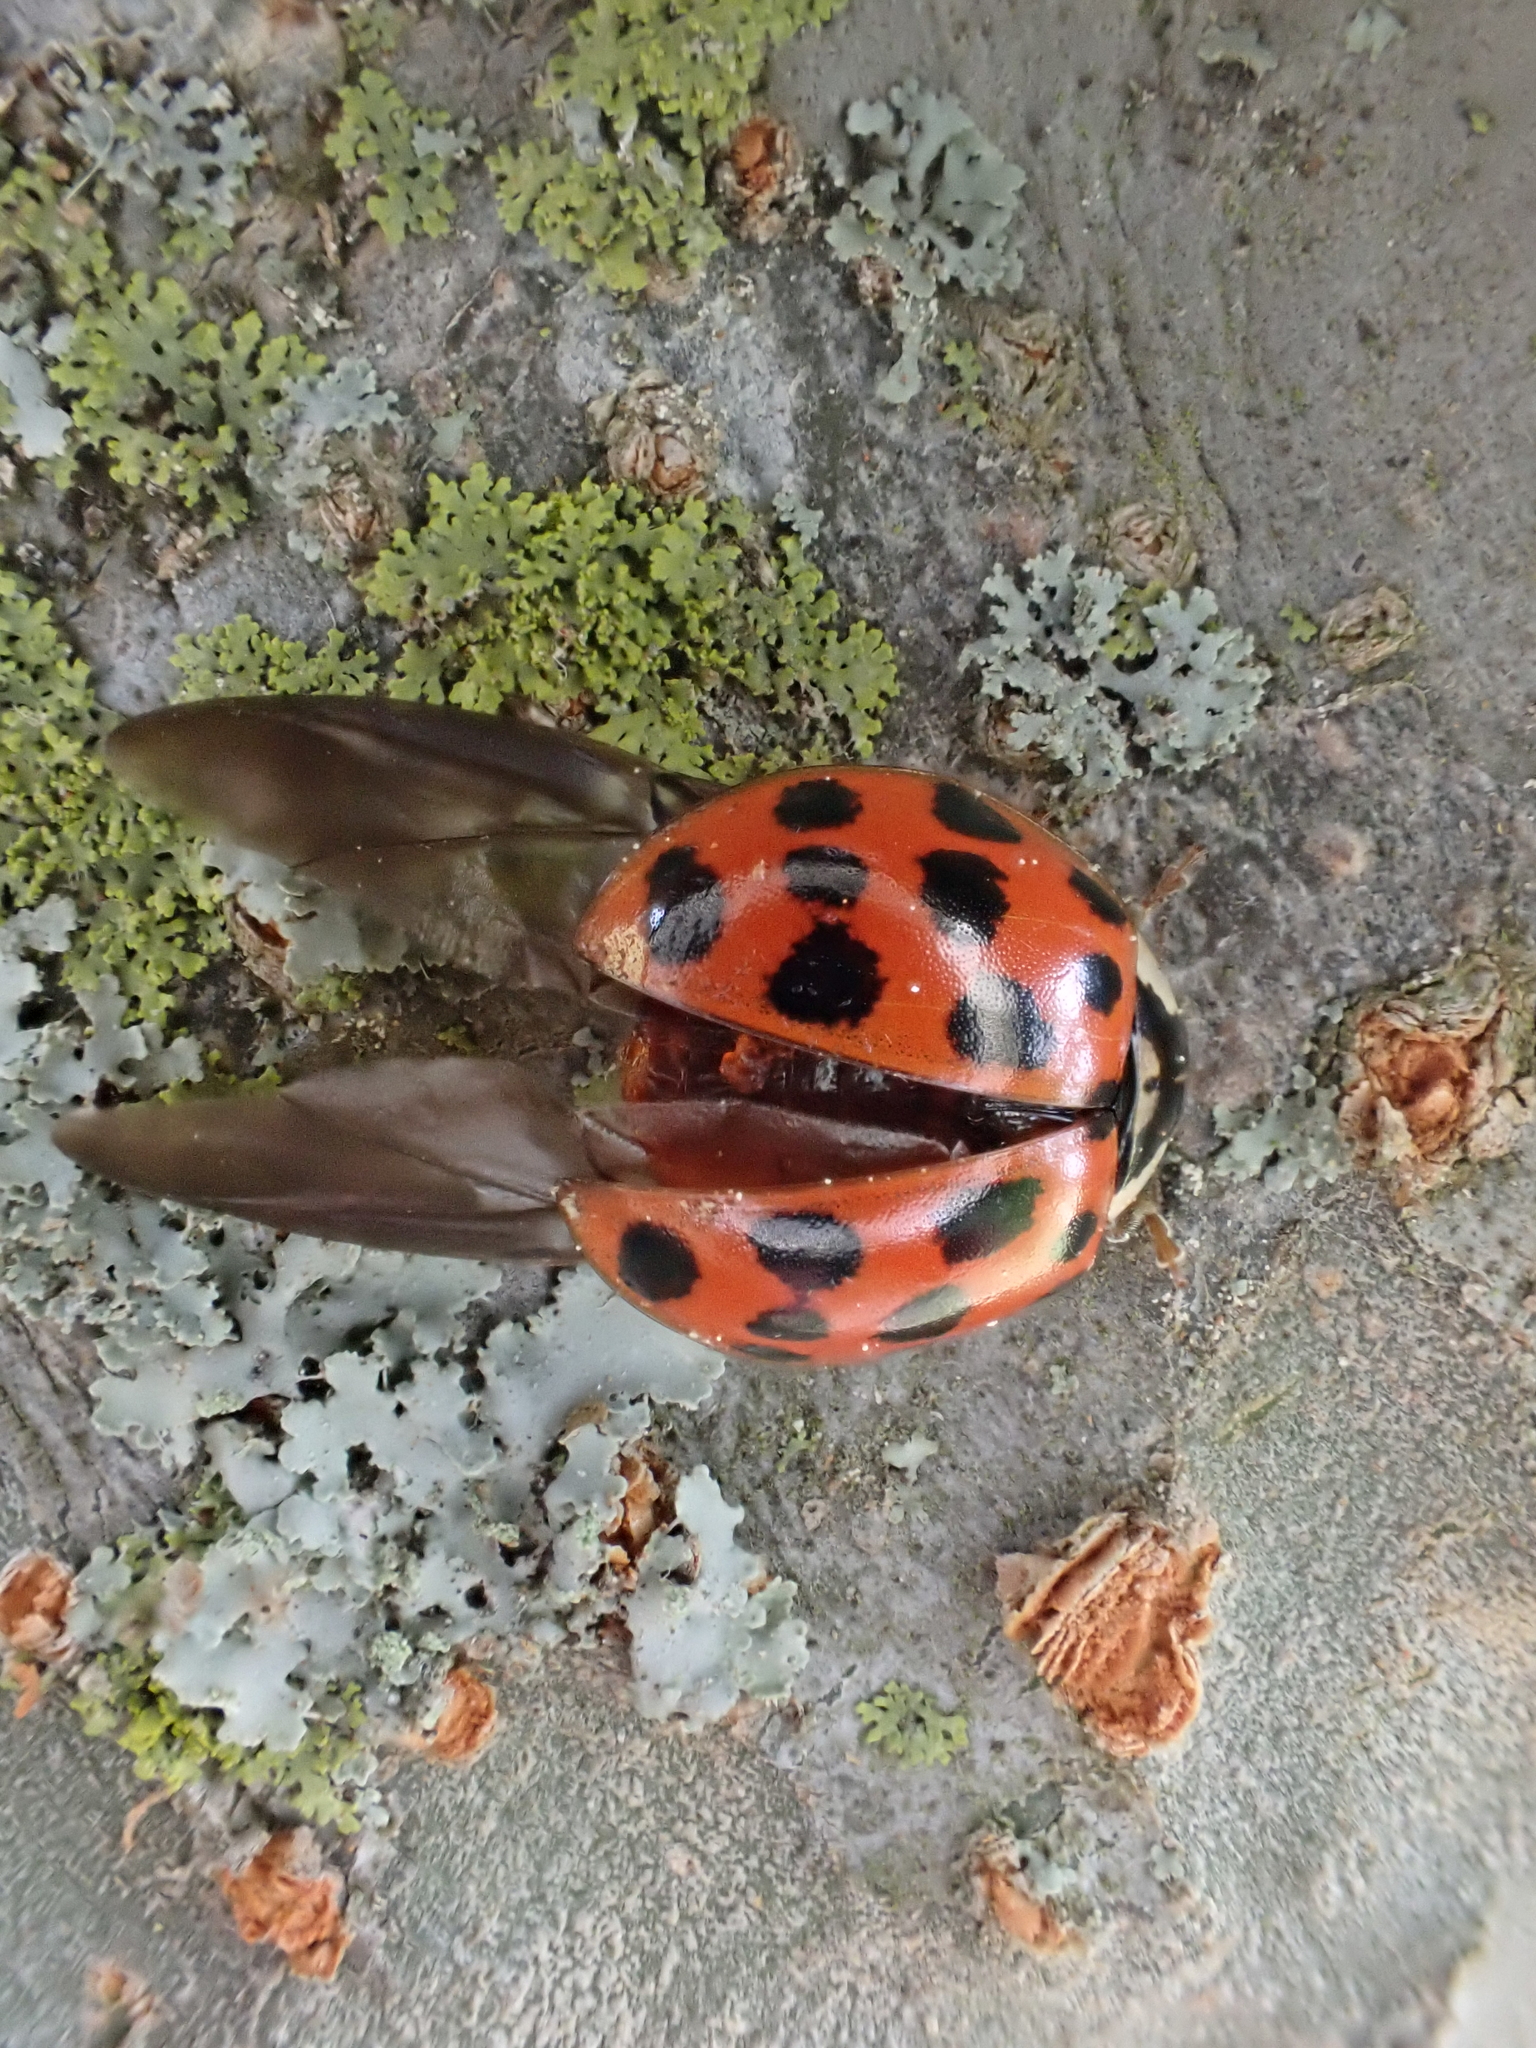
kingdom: Animalia
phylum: Arthropoda
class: Insecta
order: Coleoptera
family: Coccinellidae
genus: Harmonia
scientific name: Harmonia axyridis
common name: Harlequin ladybird
